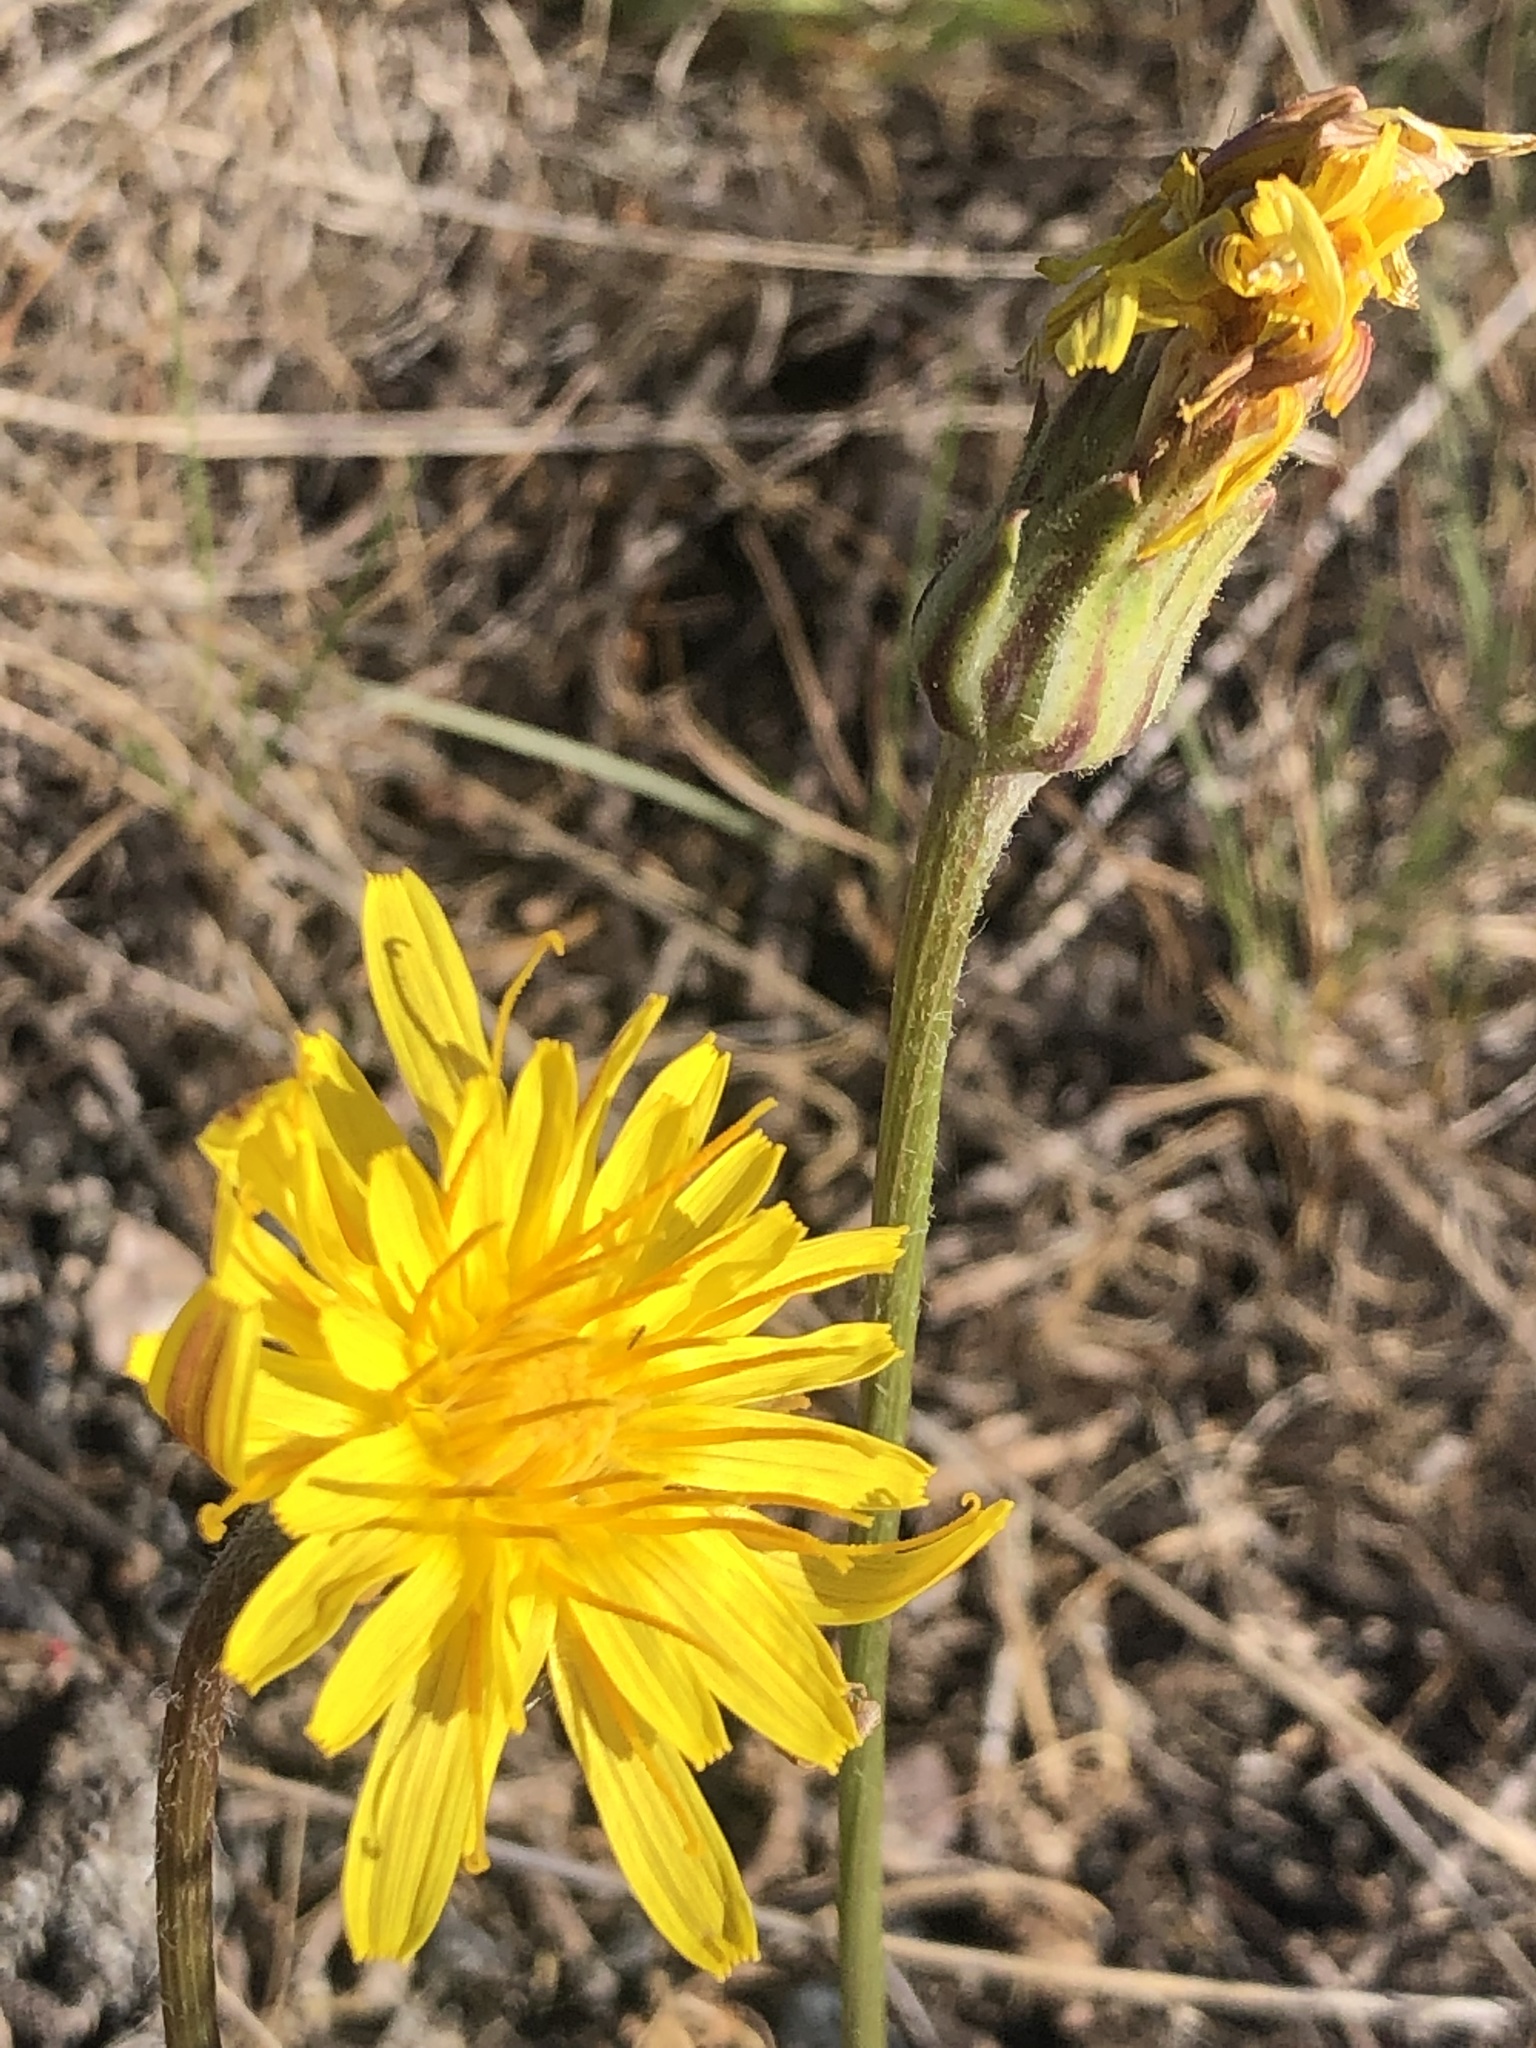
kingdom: Plantae
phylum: Tracheophyta
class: Magnoliopsida
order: Asterales
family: Asteraceae
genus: Agoseris
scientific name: Agoseris glauca
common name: Prairie agoseris
